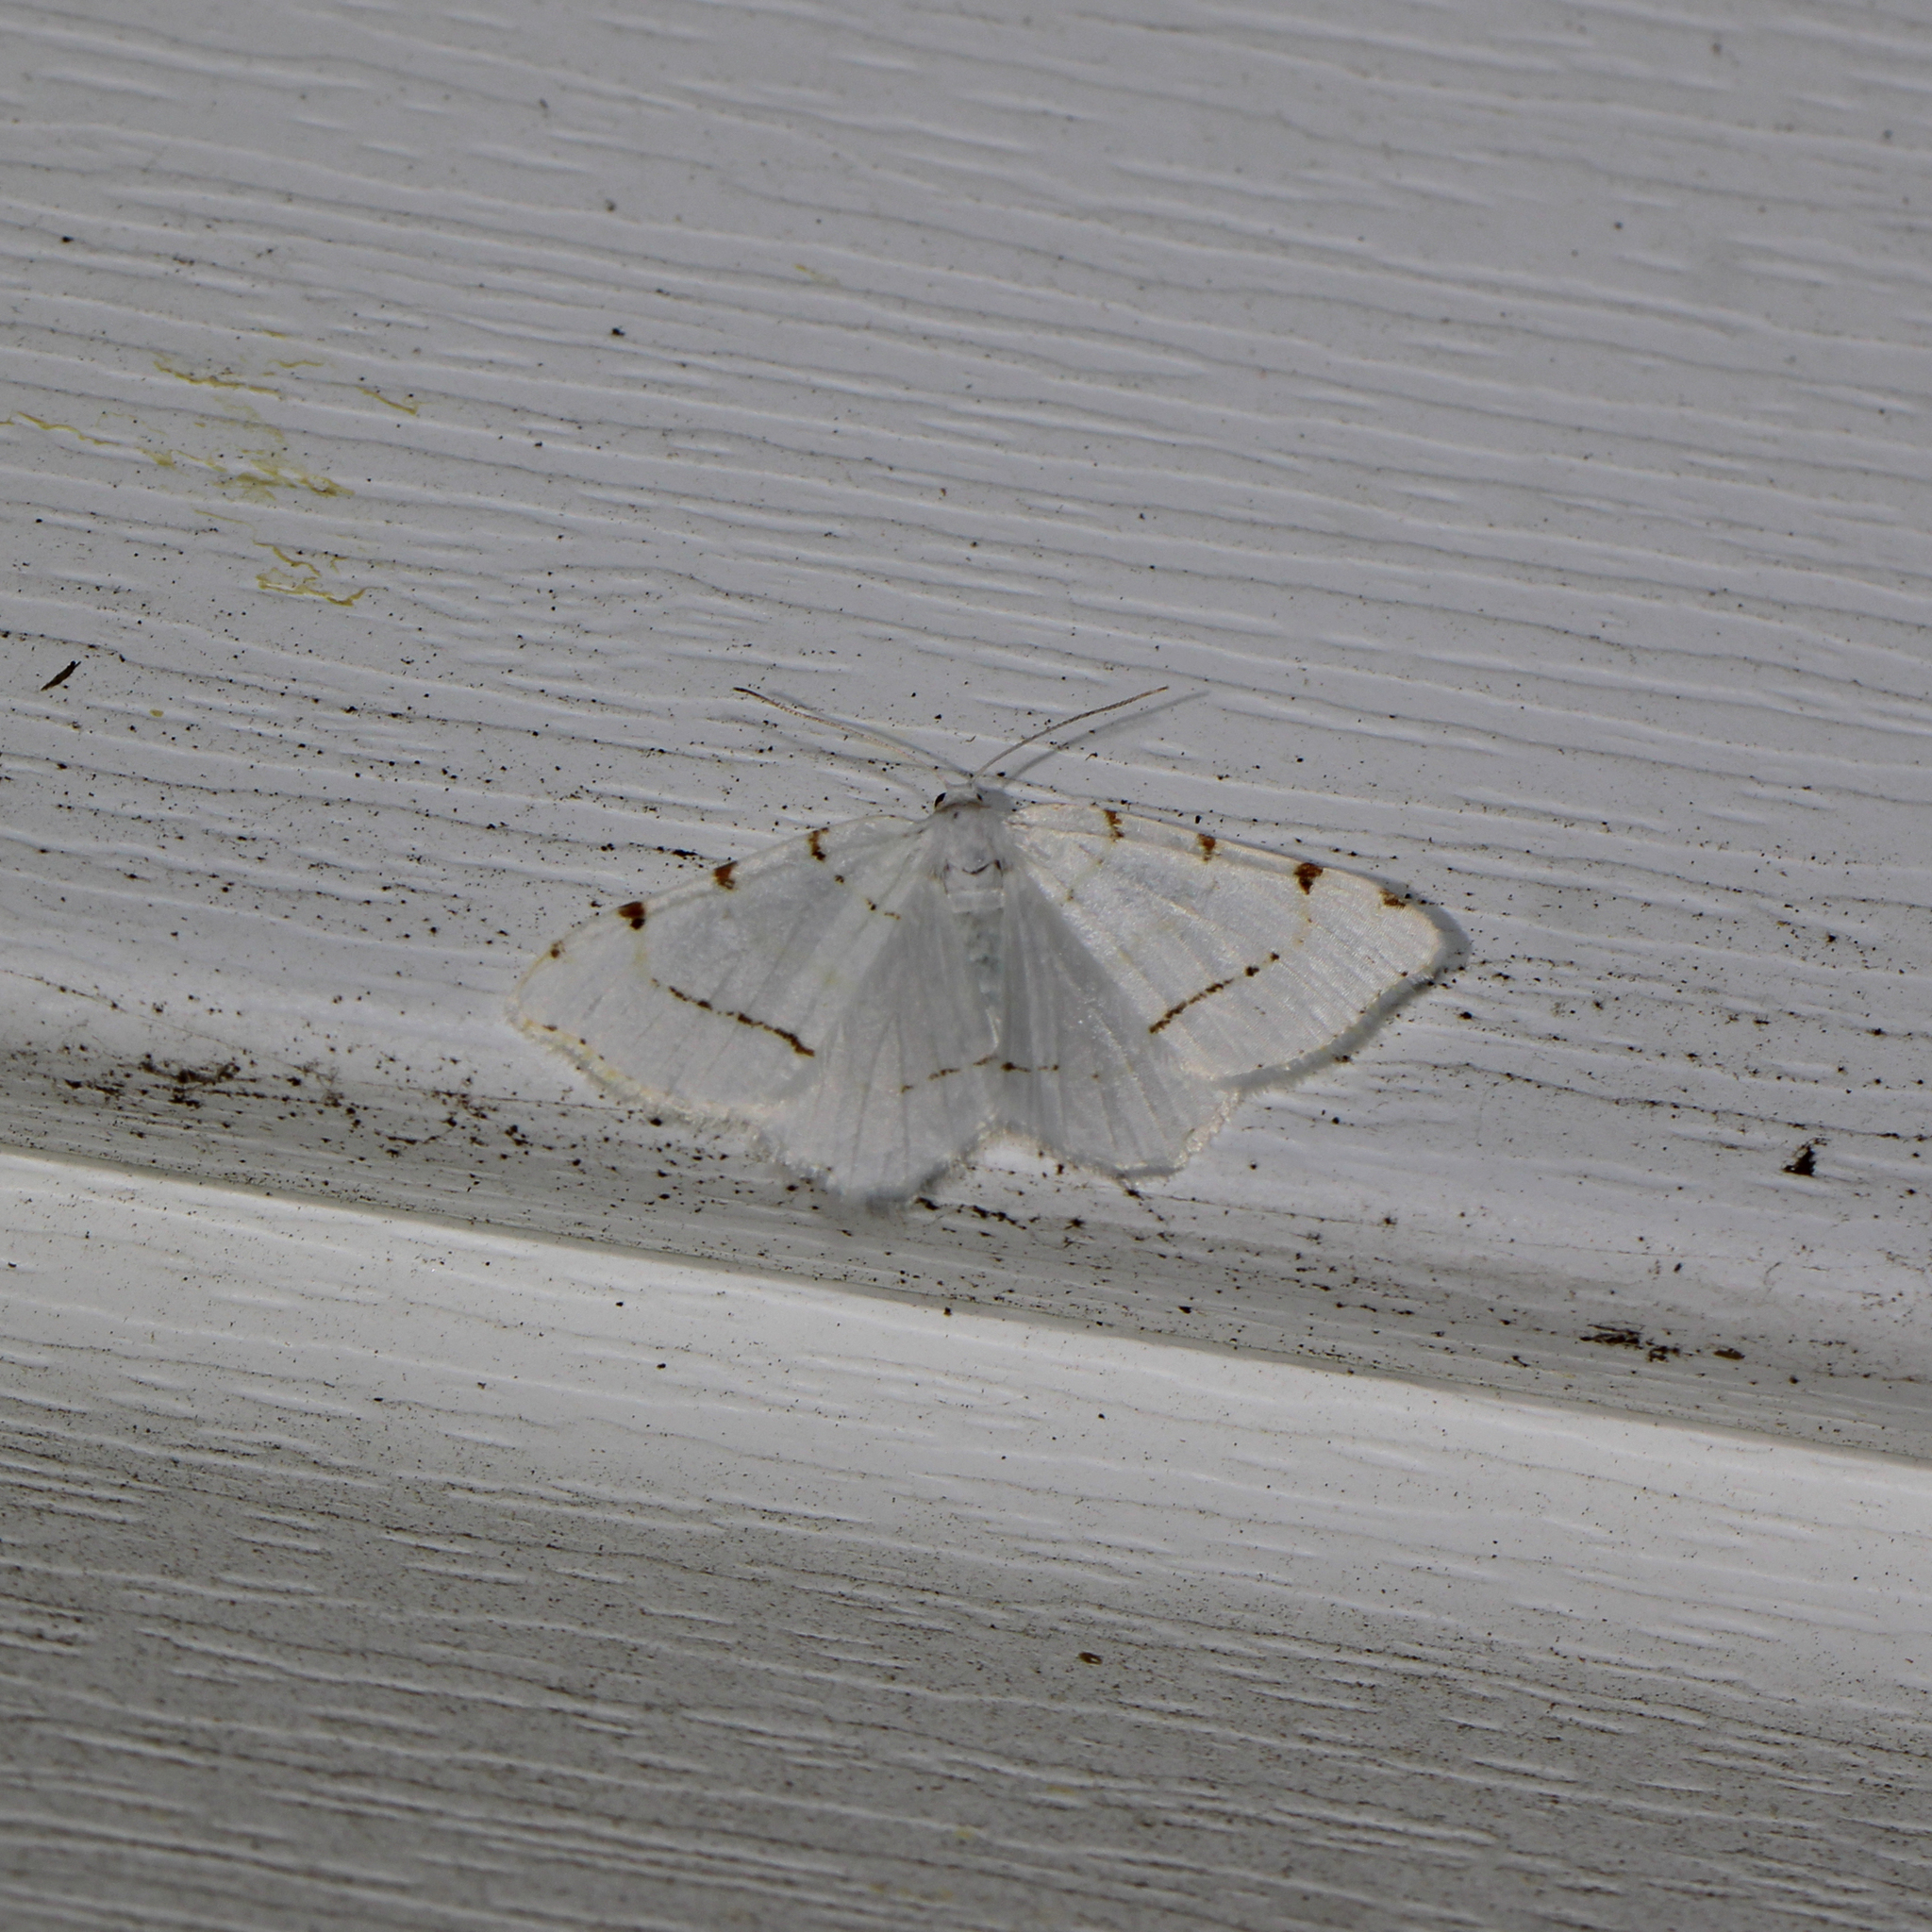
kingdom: Animalia
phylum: Arthropoda
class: Insecta
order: Lepidoptera
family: Geometridae
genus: Macaria
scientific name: Macaria pustularia
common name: Lesser maple spanworm moth
